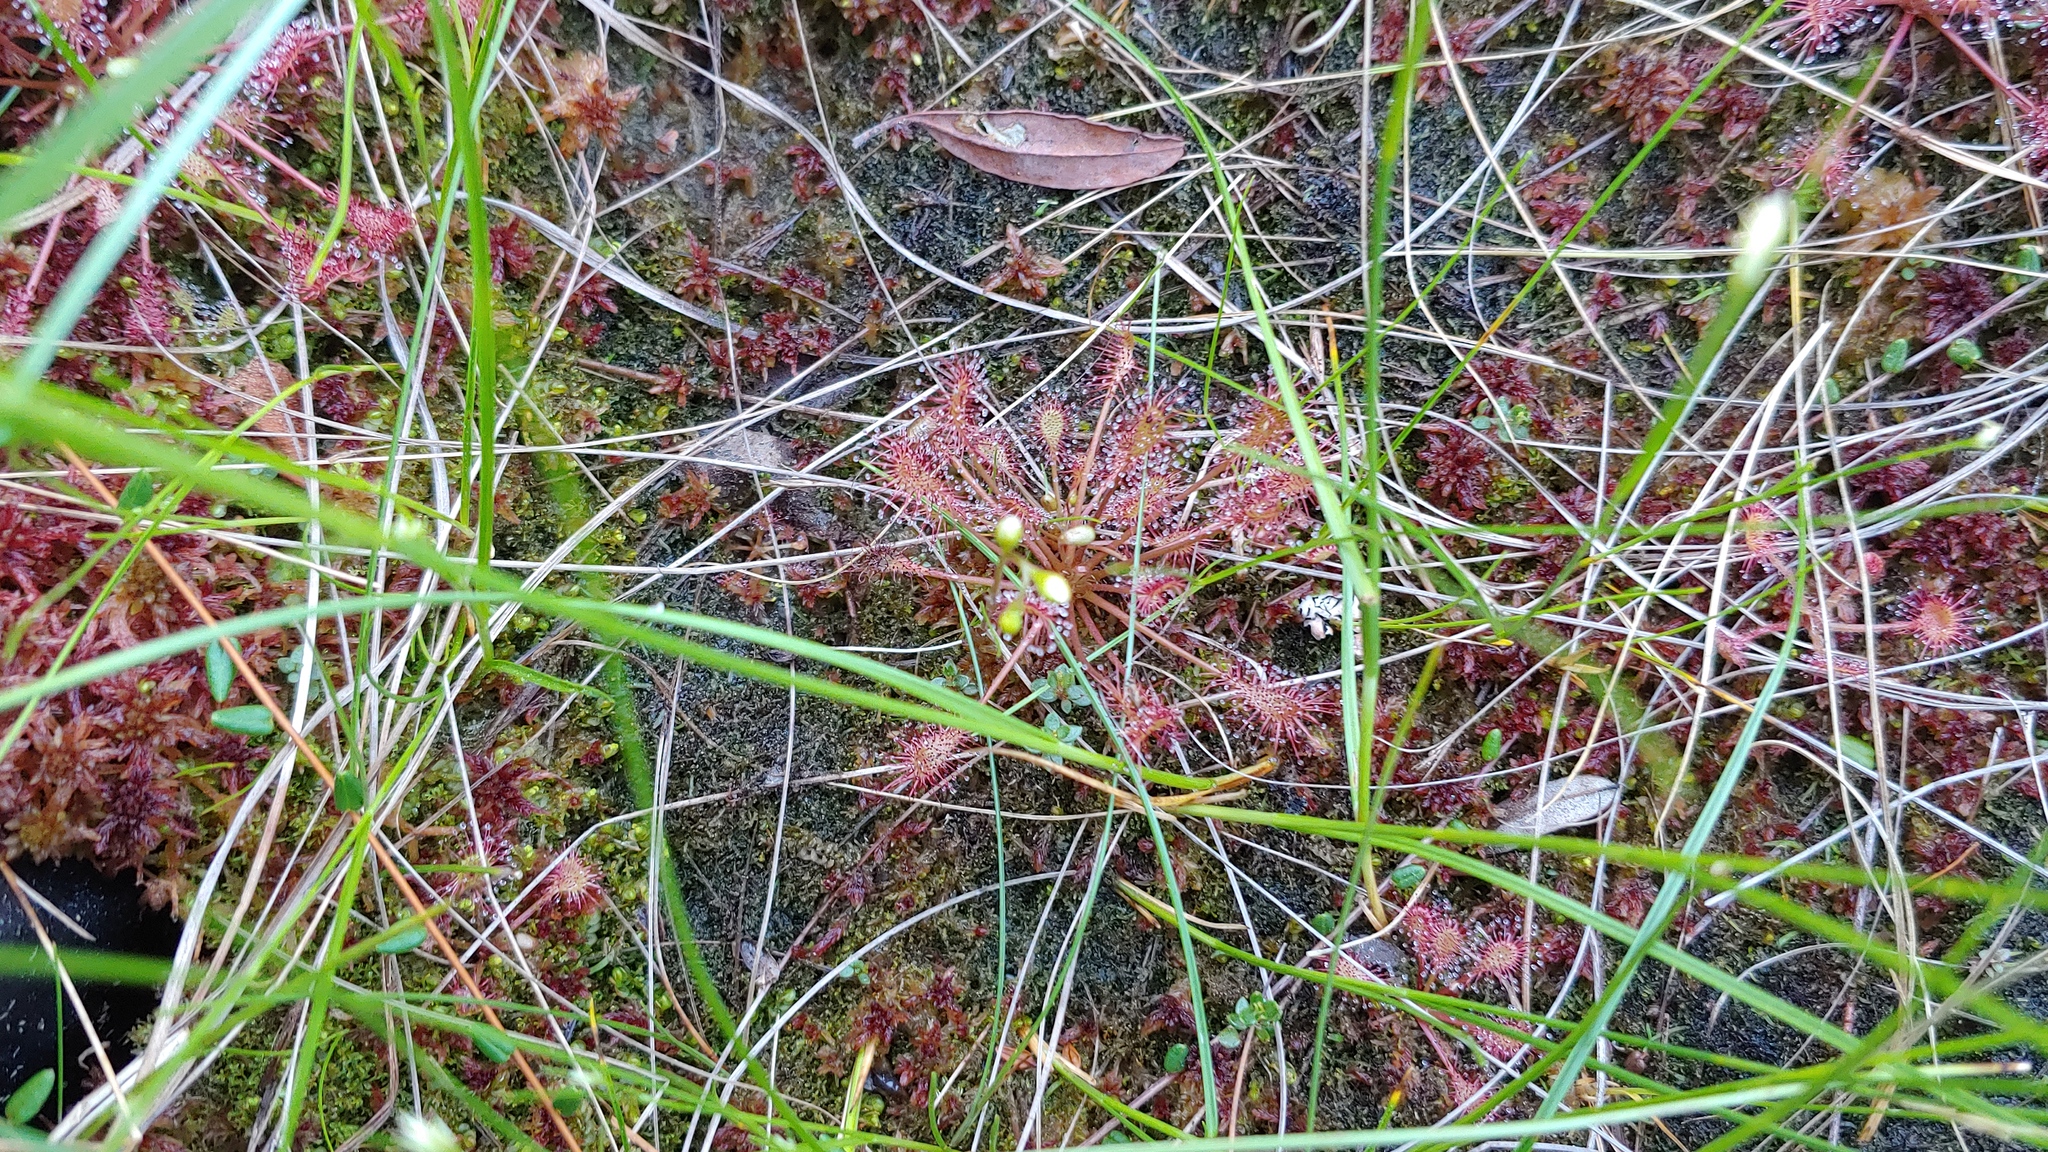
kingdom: Plantae
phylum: Tracheophyta
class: Magnoliopsida
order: Caryophyllales
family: Droseraceae
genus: Drosera
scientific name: Drosera intermedia
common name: Oblong-leaved sundew
